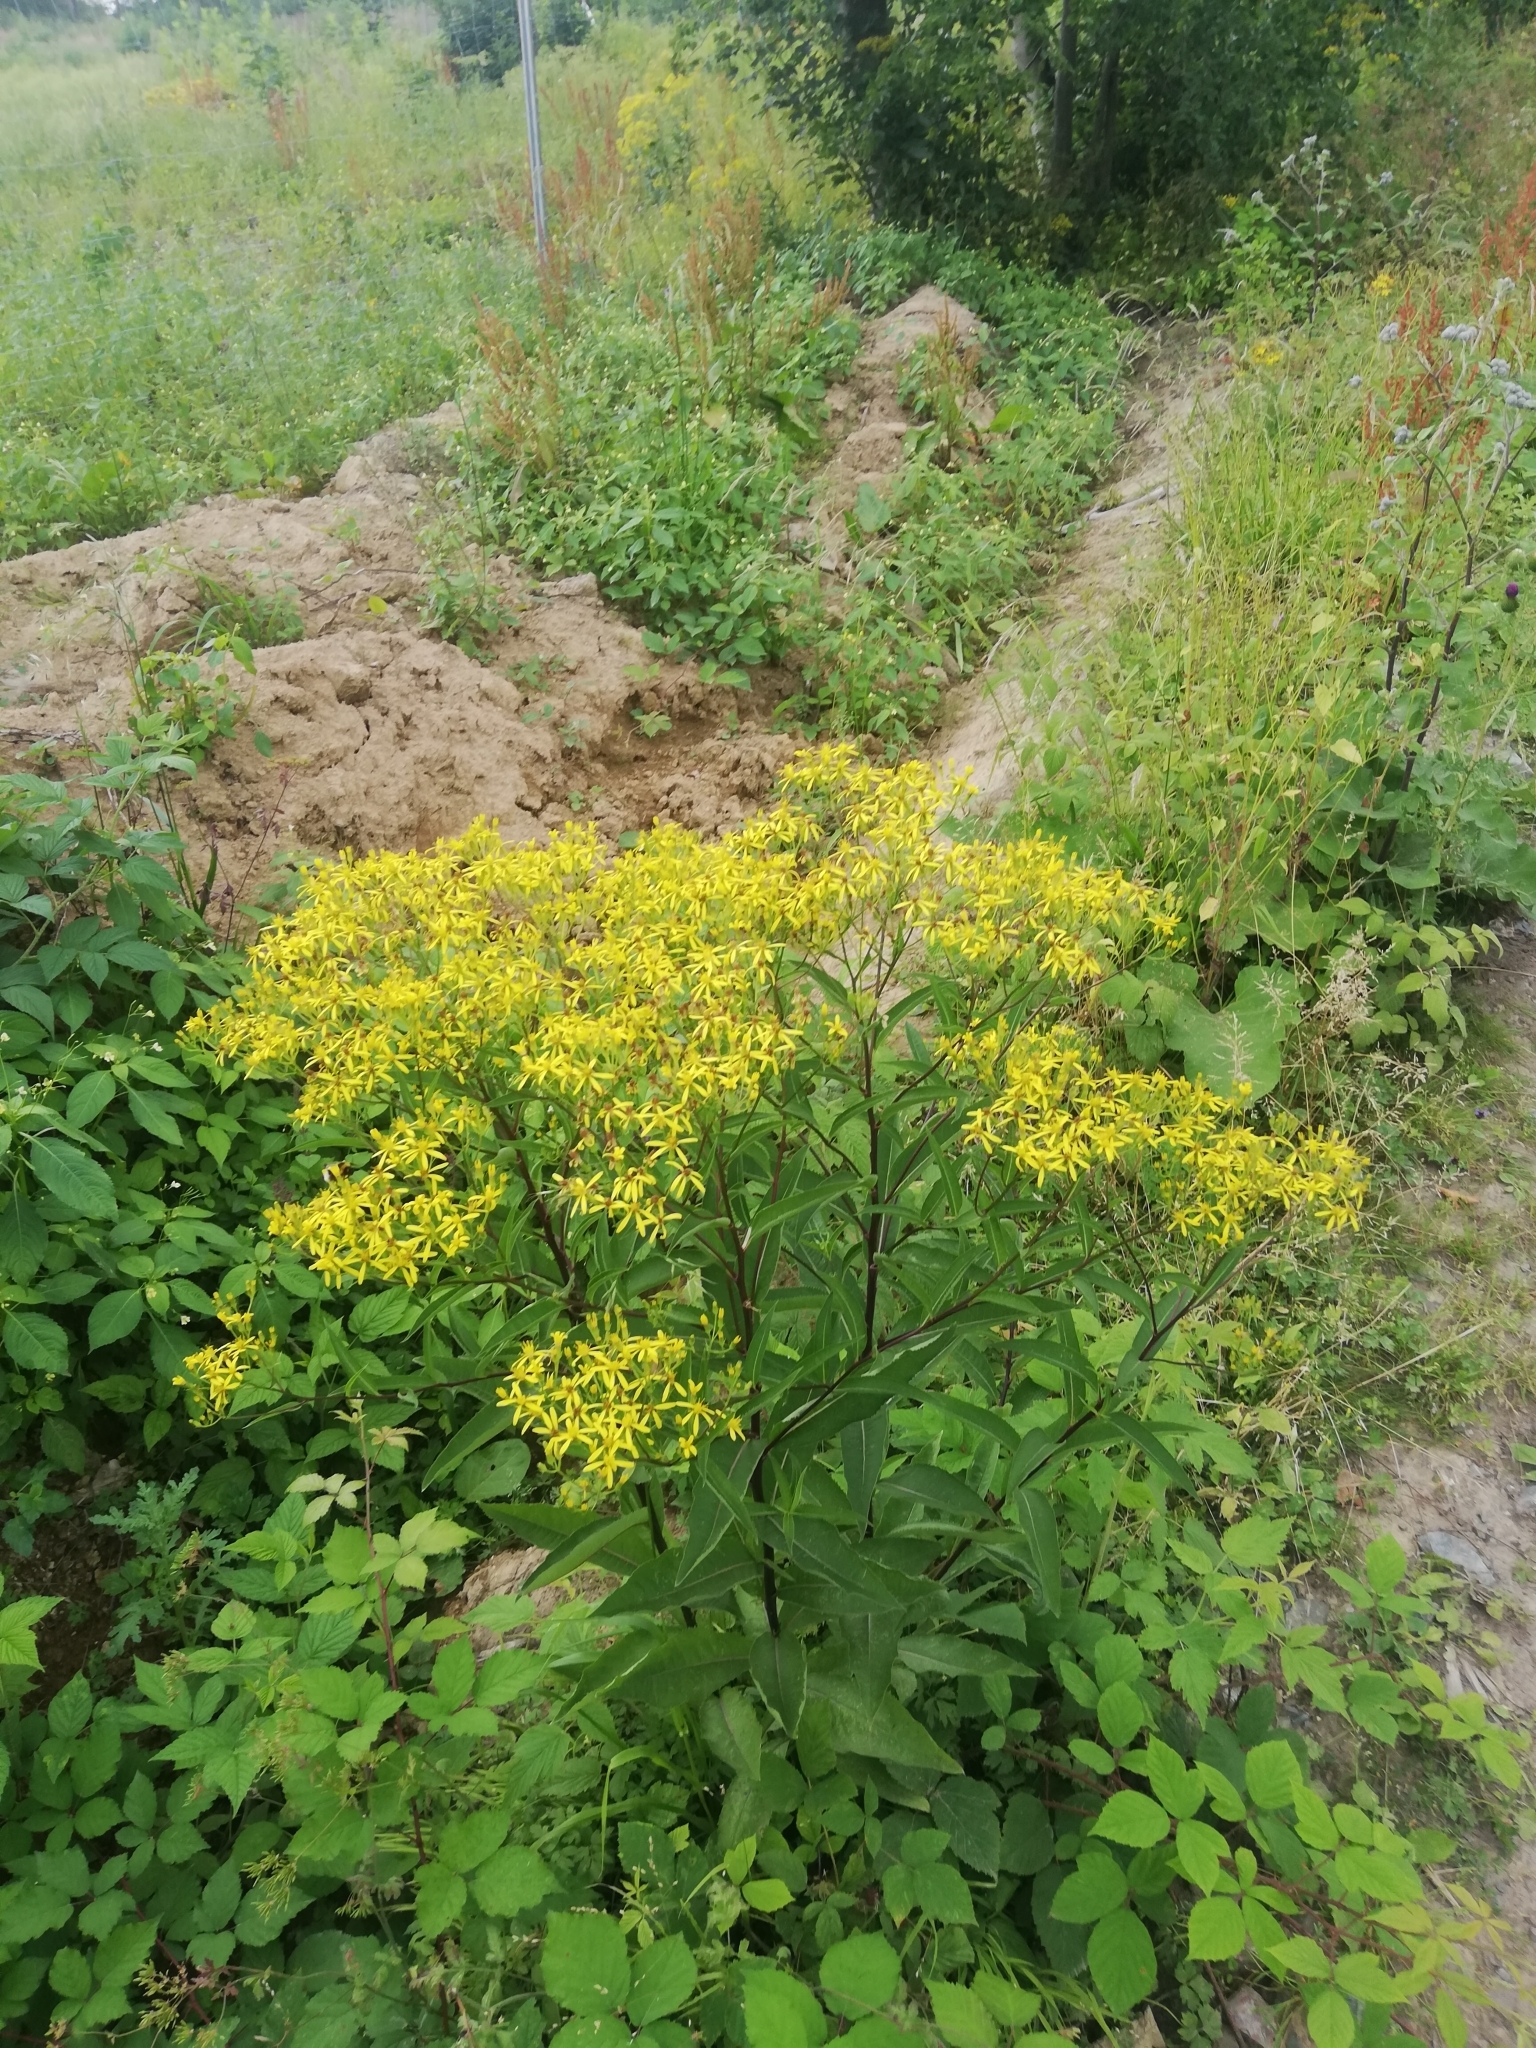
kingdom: Plantae
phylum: Tracheophyta
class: Magnoliopsida
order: Asterales
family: Asteraceae
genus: Senecio
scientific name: Senecio ovatus
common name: Wood ragwort
